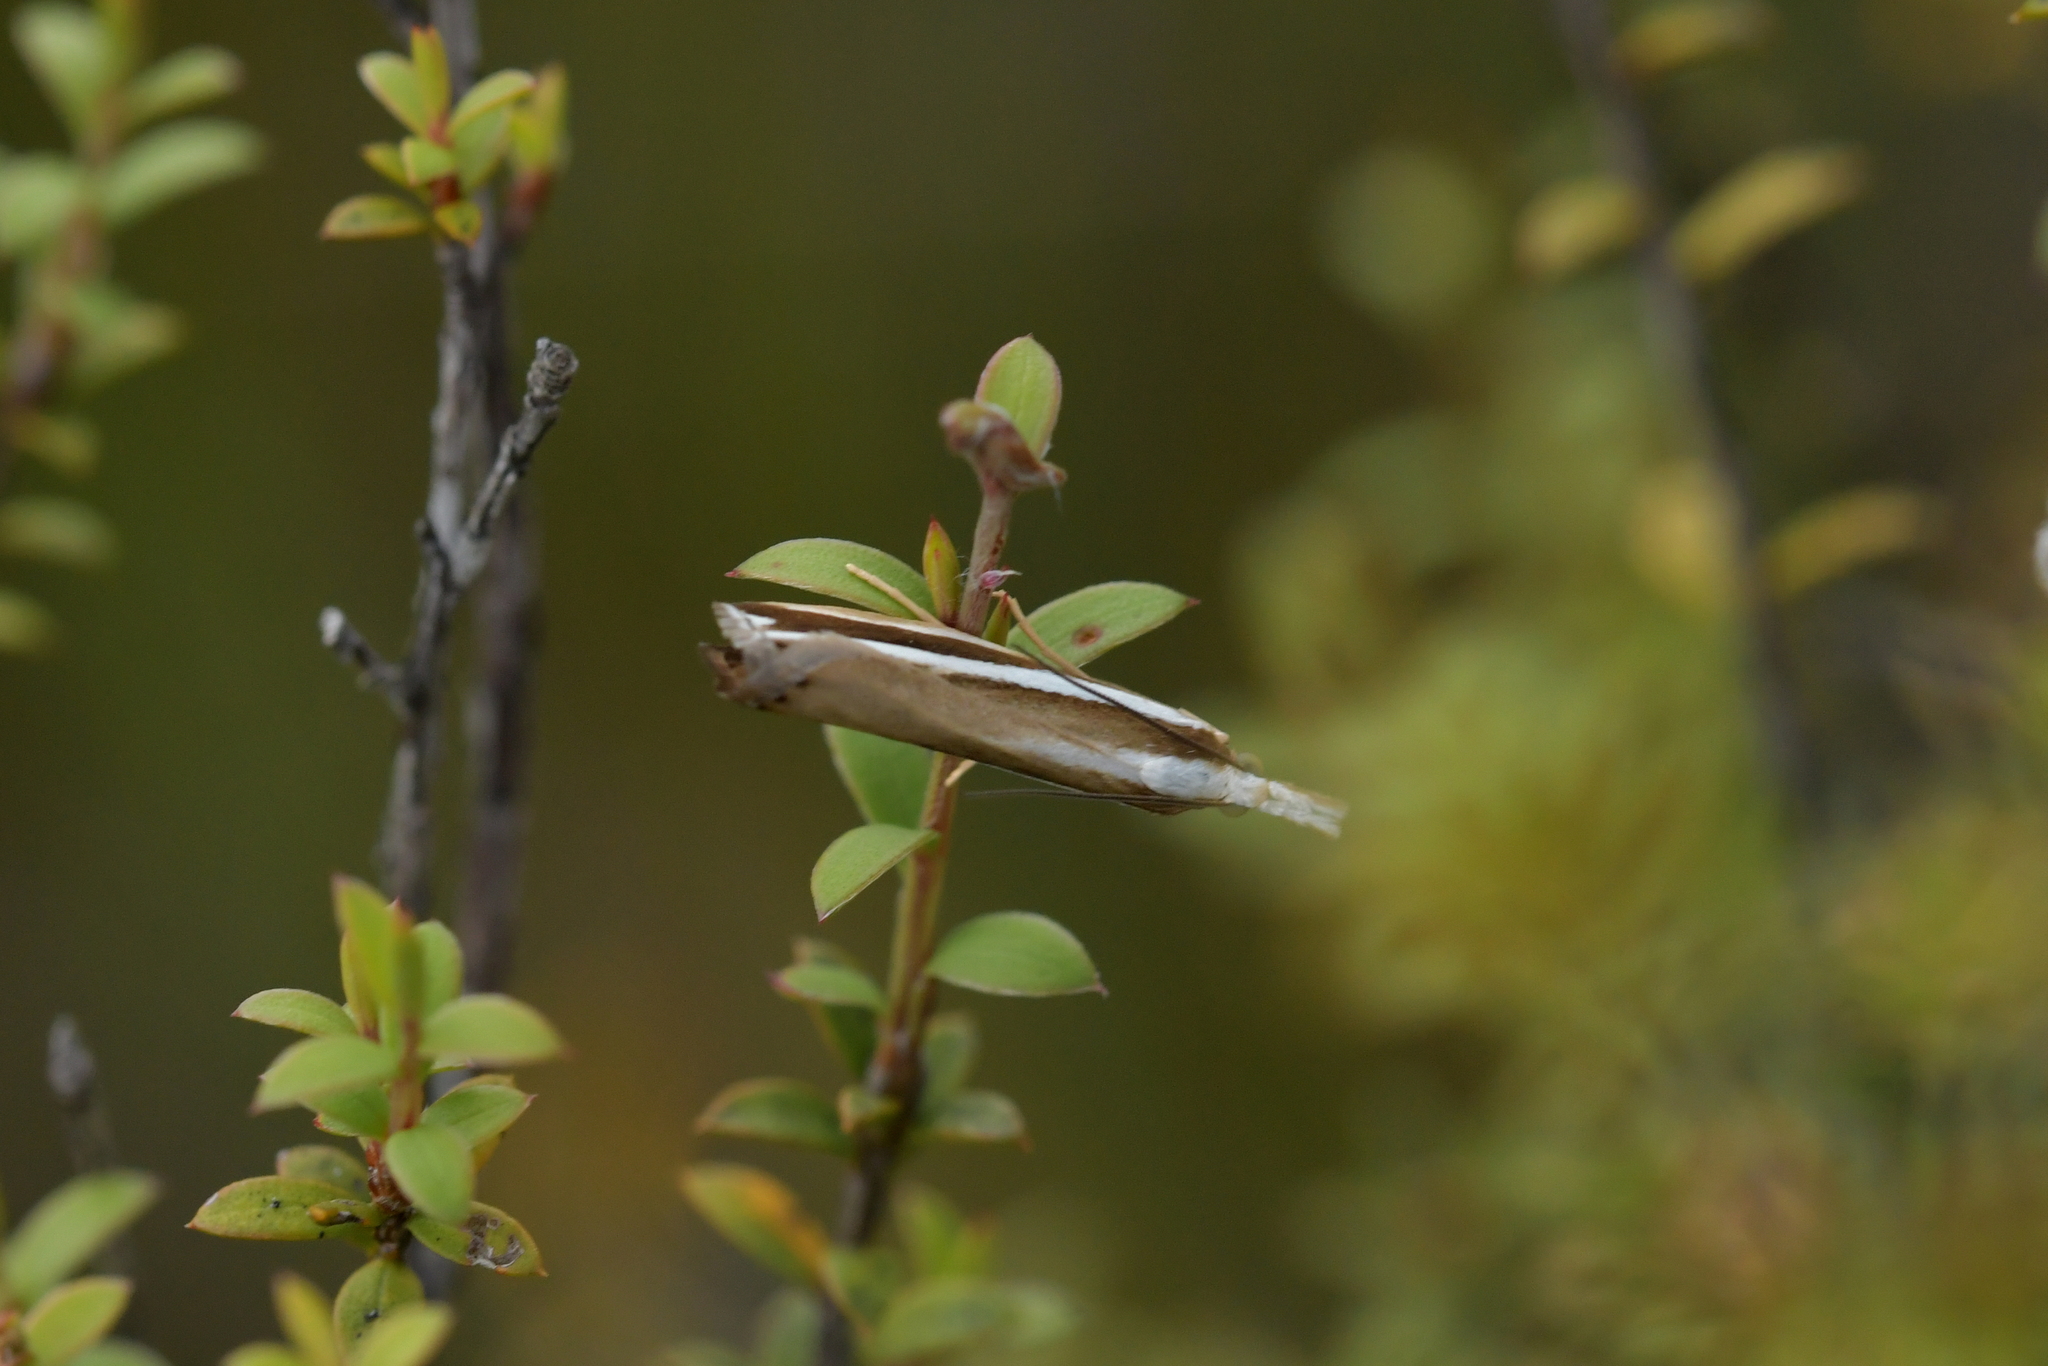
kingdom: Animalia
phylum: Arthropoda
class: Insecta
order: Lepidoptera
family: Crambidae
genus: Orocrambus
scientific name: Orocrambus apicellus
